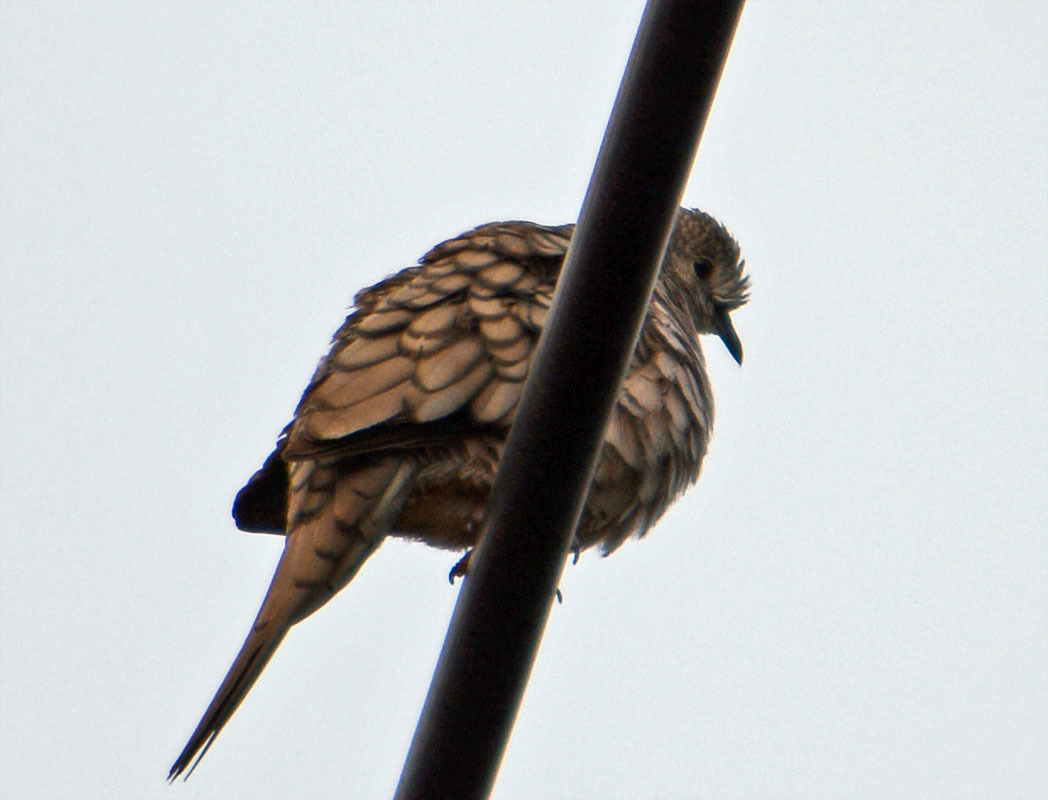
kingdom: Animalia
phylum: Chordata
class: Aves
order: Columbiformes
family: Columbidae
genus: Columbina
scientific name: Columbina inca
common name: Inca dove
